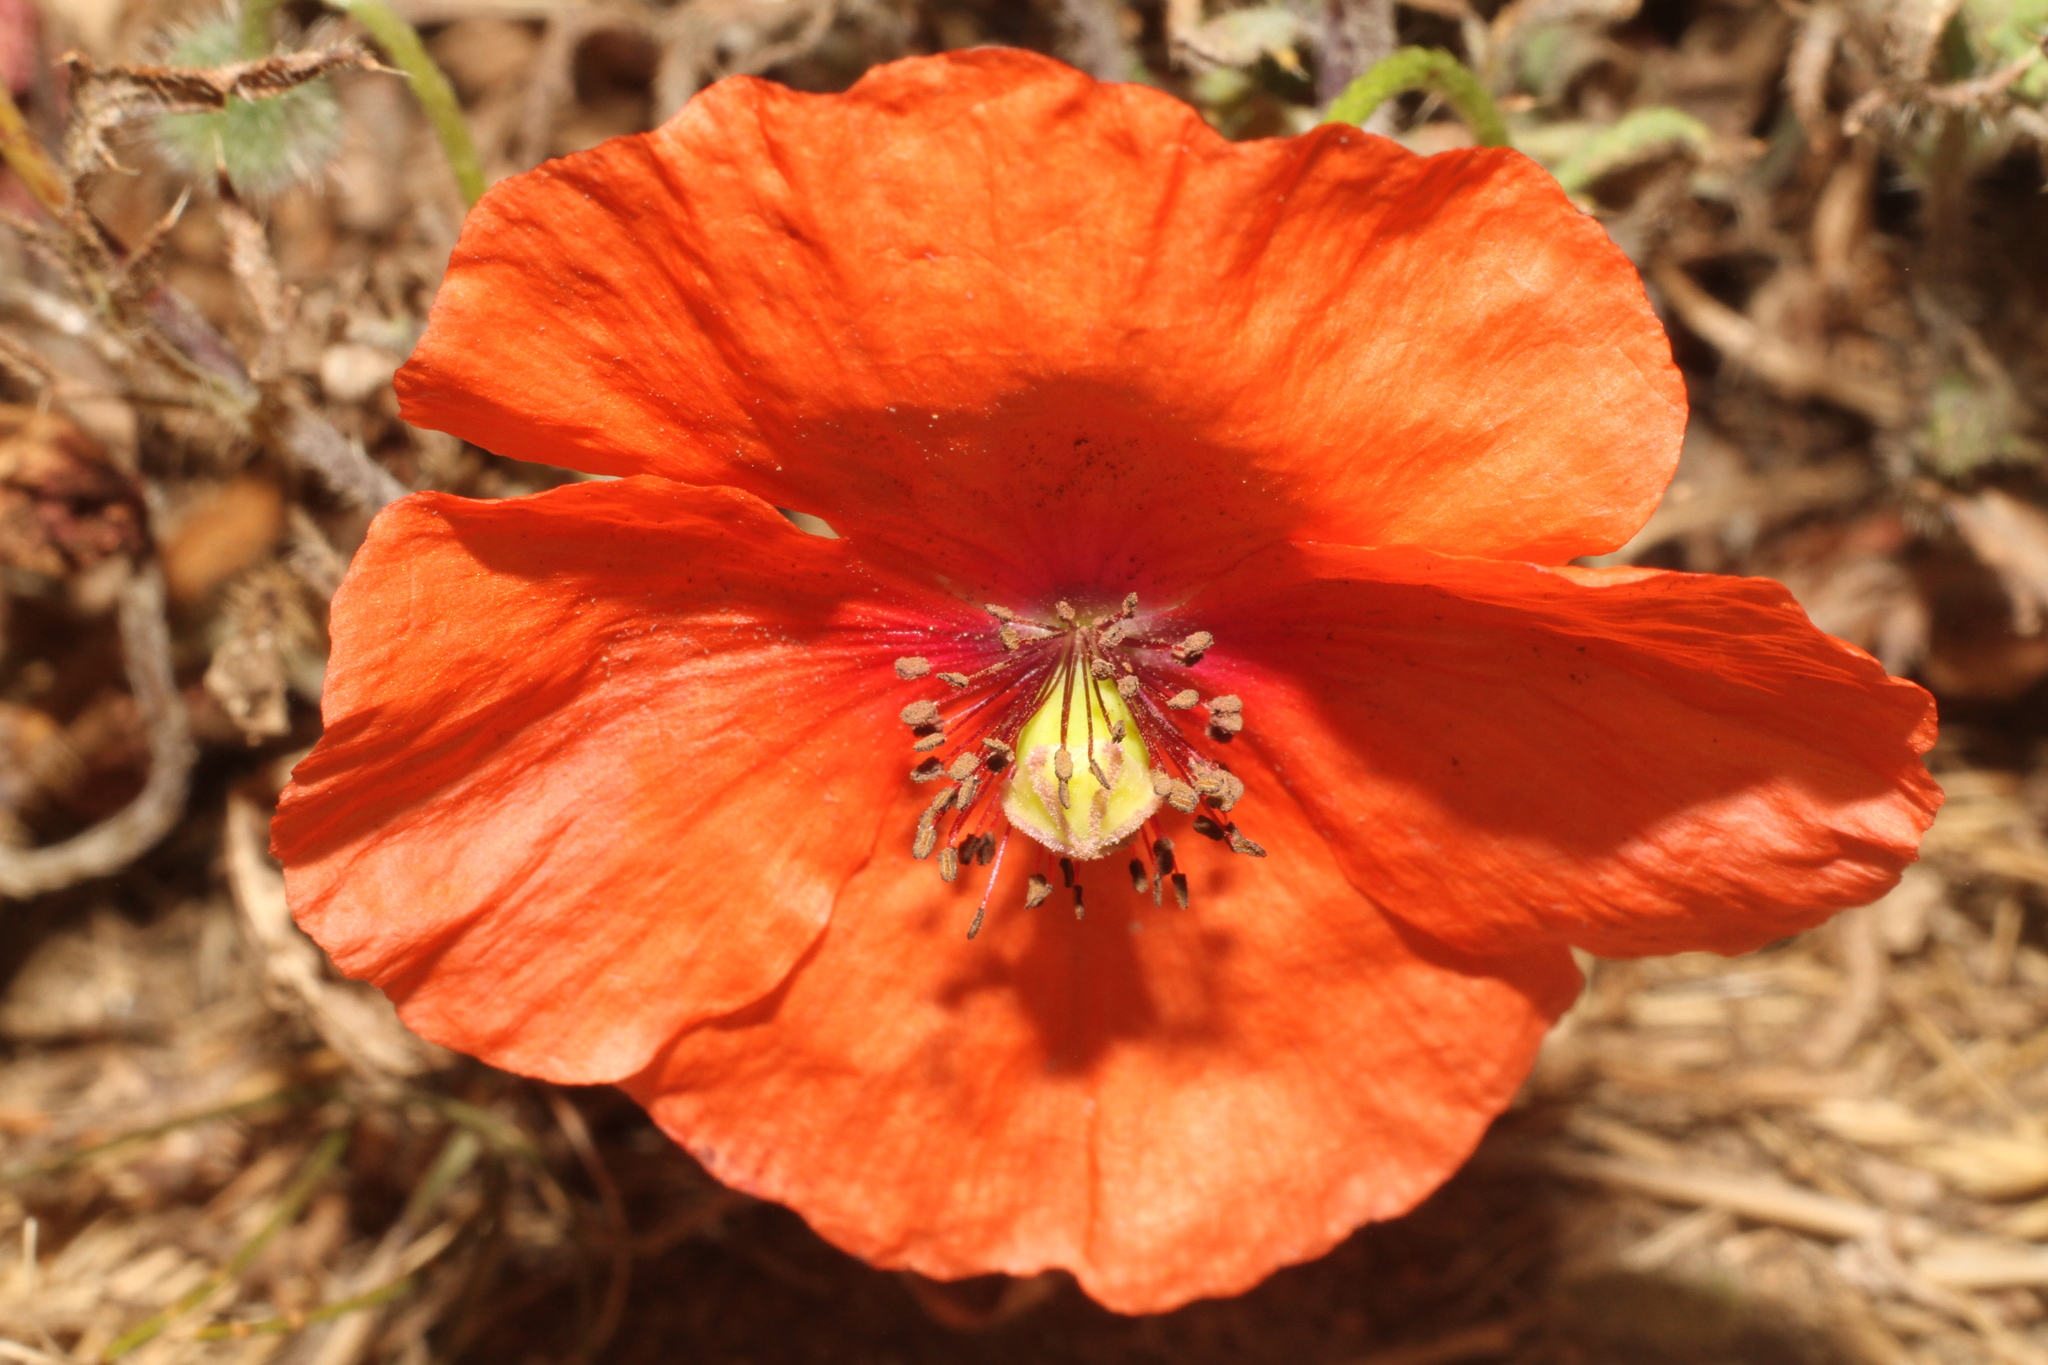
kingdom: Plantae
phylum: Tracheophyta
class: Magnoliopsida
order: Ranunculales
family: Papaveraceae
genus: Papaver
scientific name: Papaver rhoeas
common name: Corn poppy
